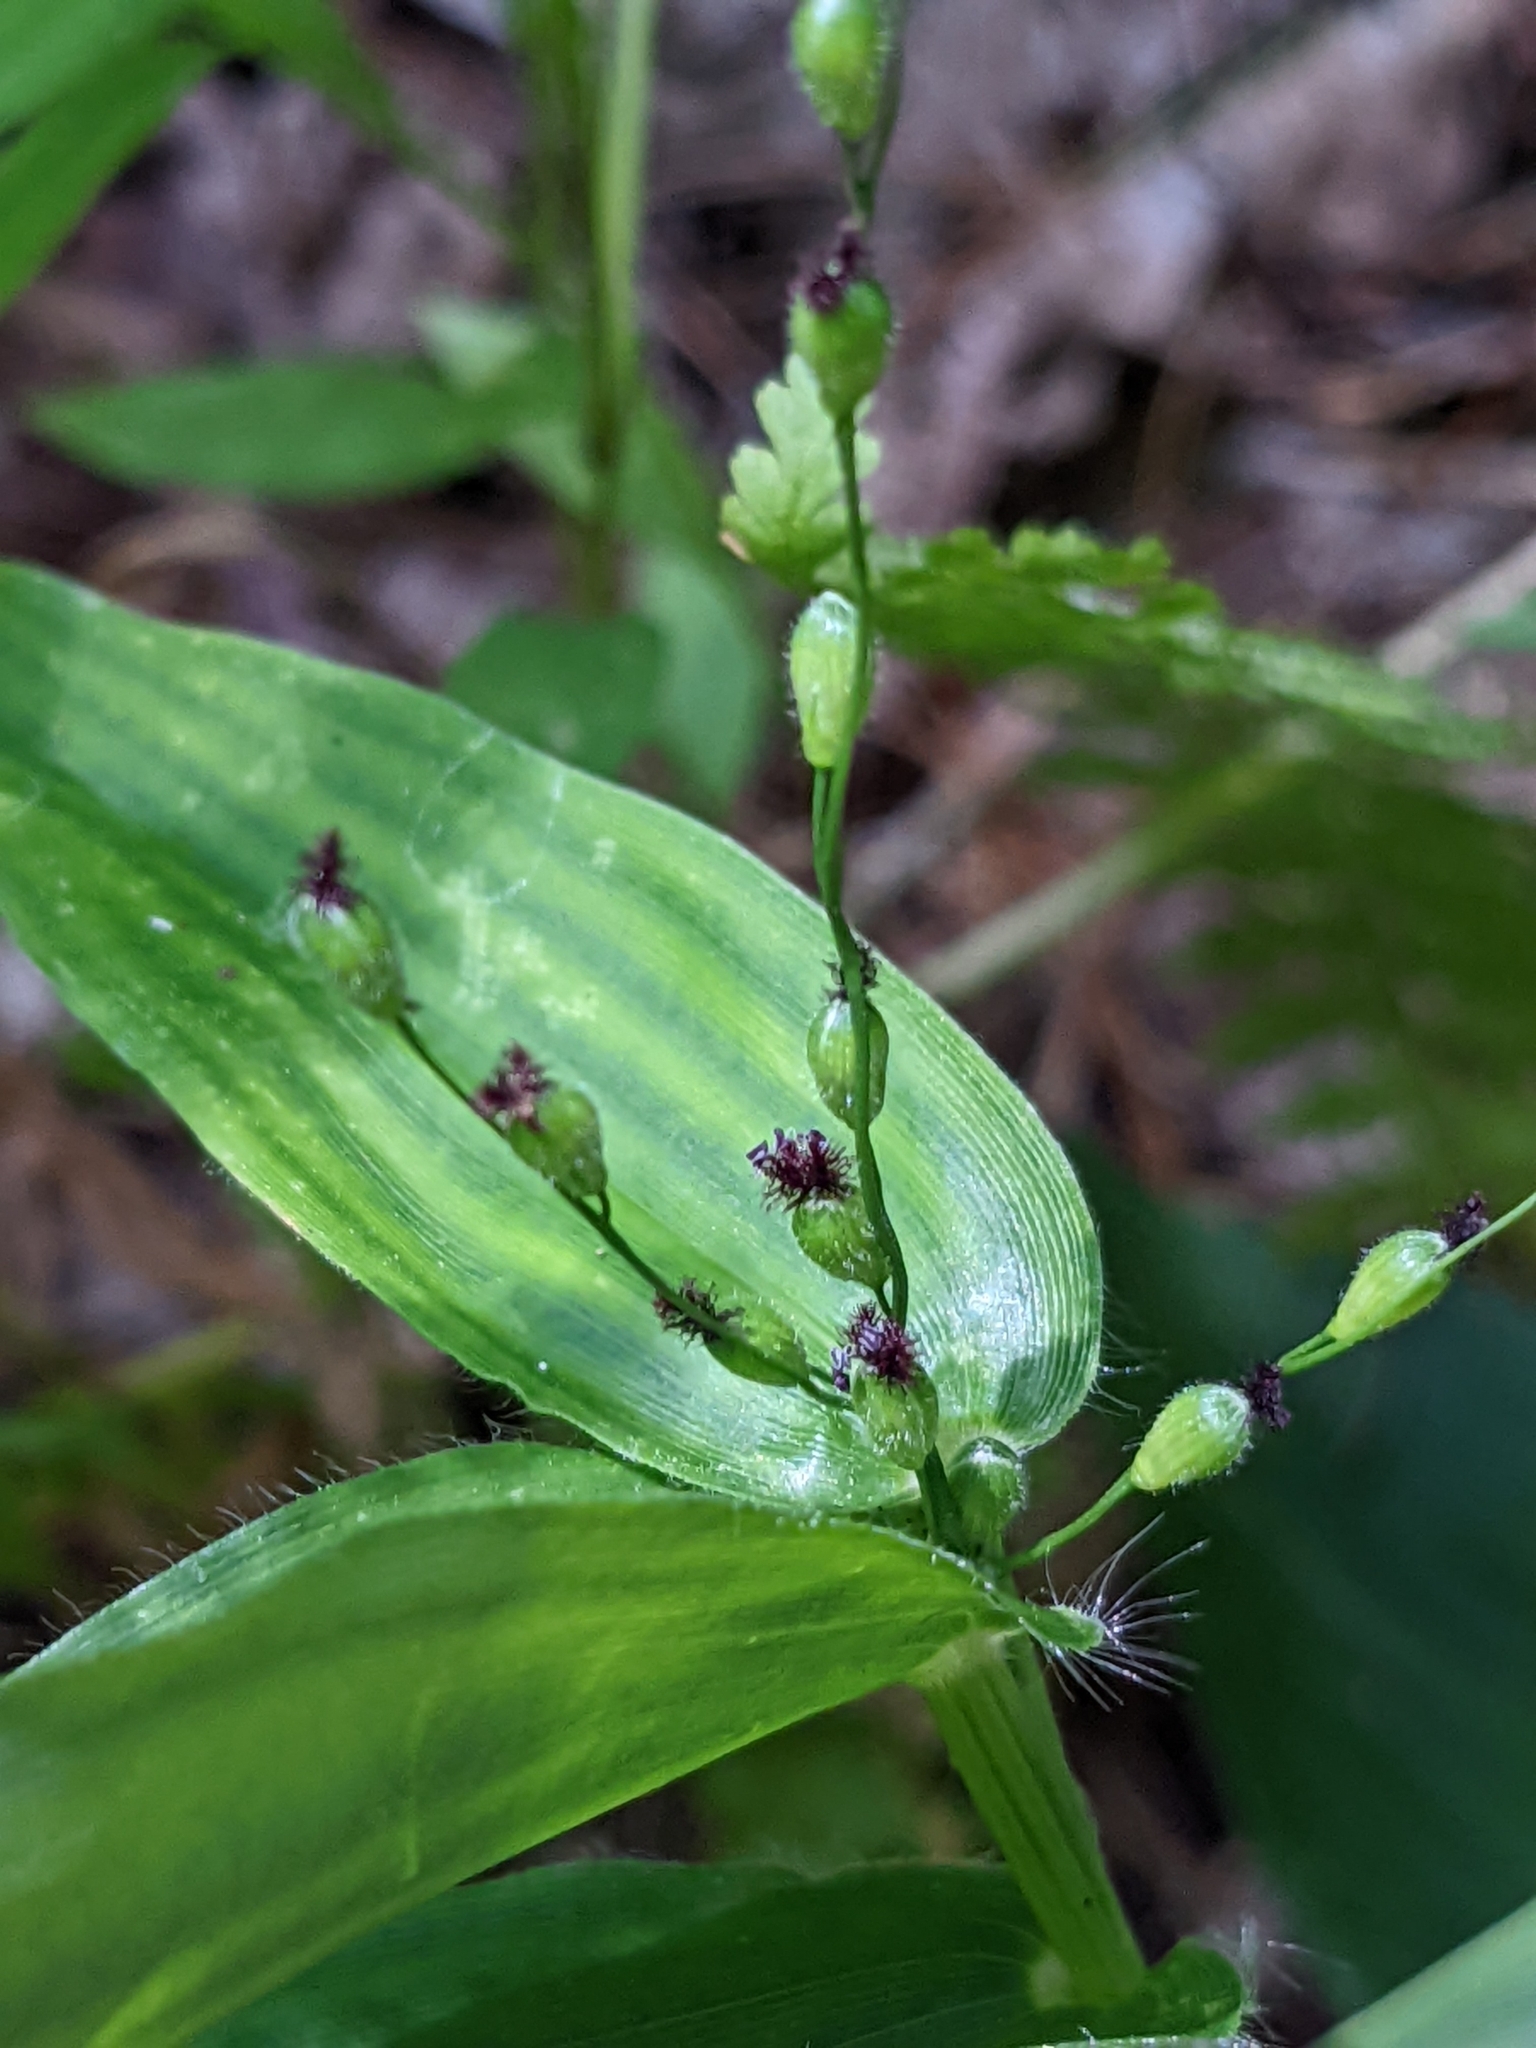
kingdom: Plantae
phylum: Tracheophyta
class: Liliopsida
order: Poales
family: Poaceae
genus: Dichanthelium
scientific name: Dichanthelium latifolium
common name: Broad-leaved panicgrass
